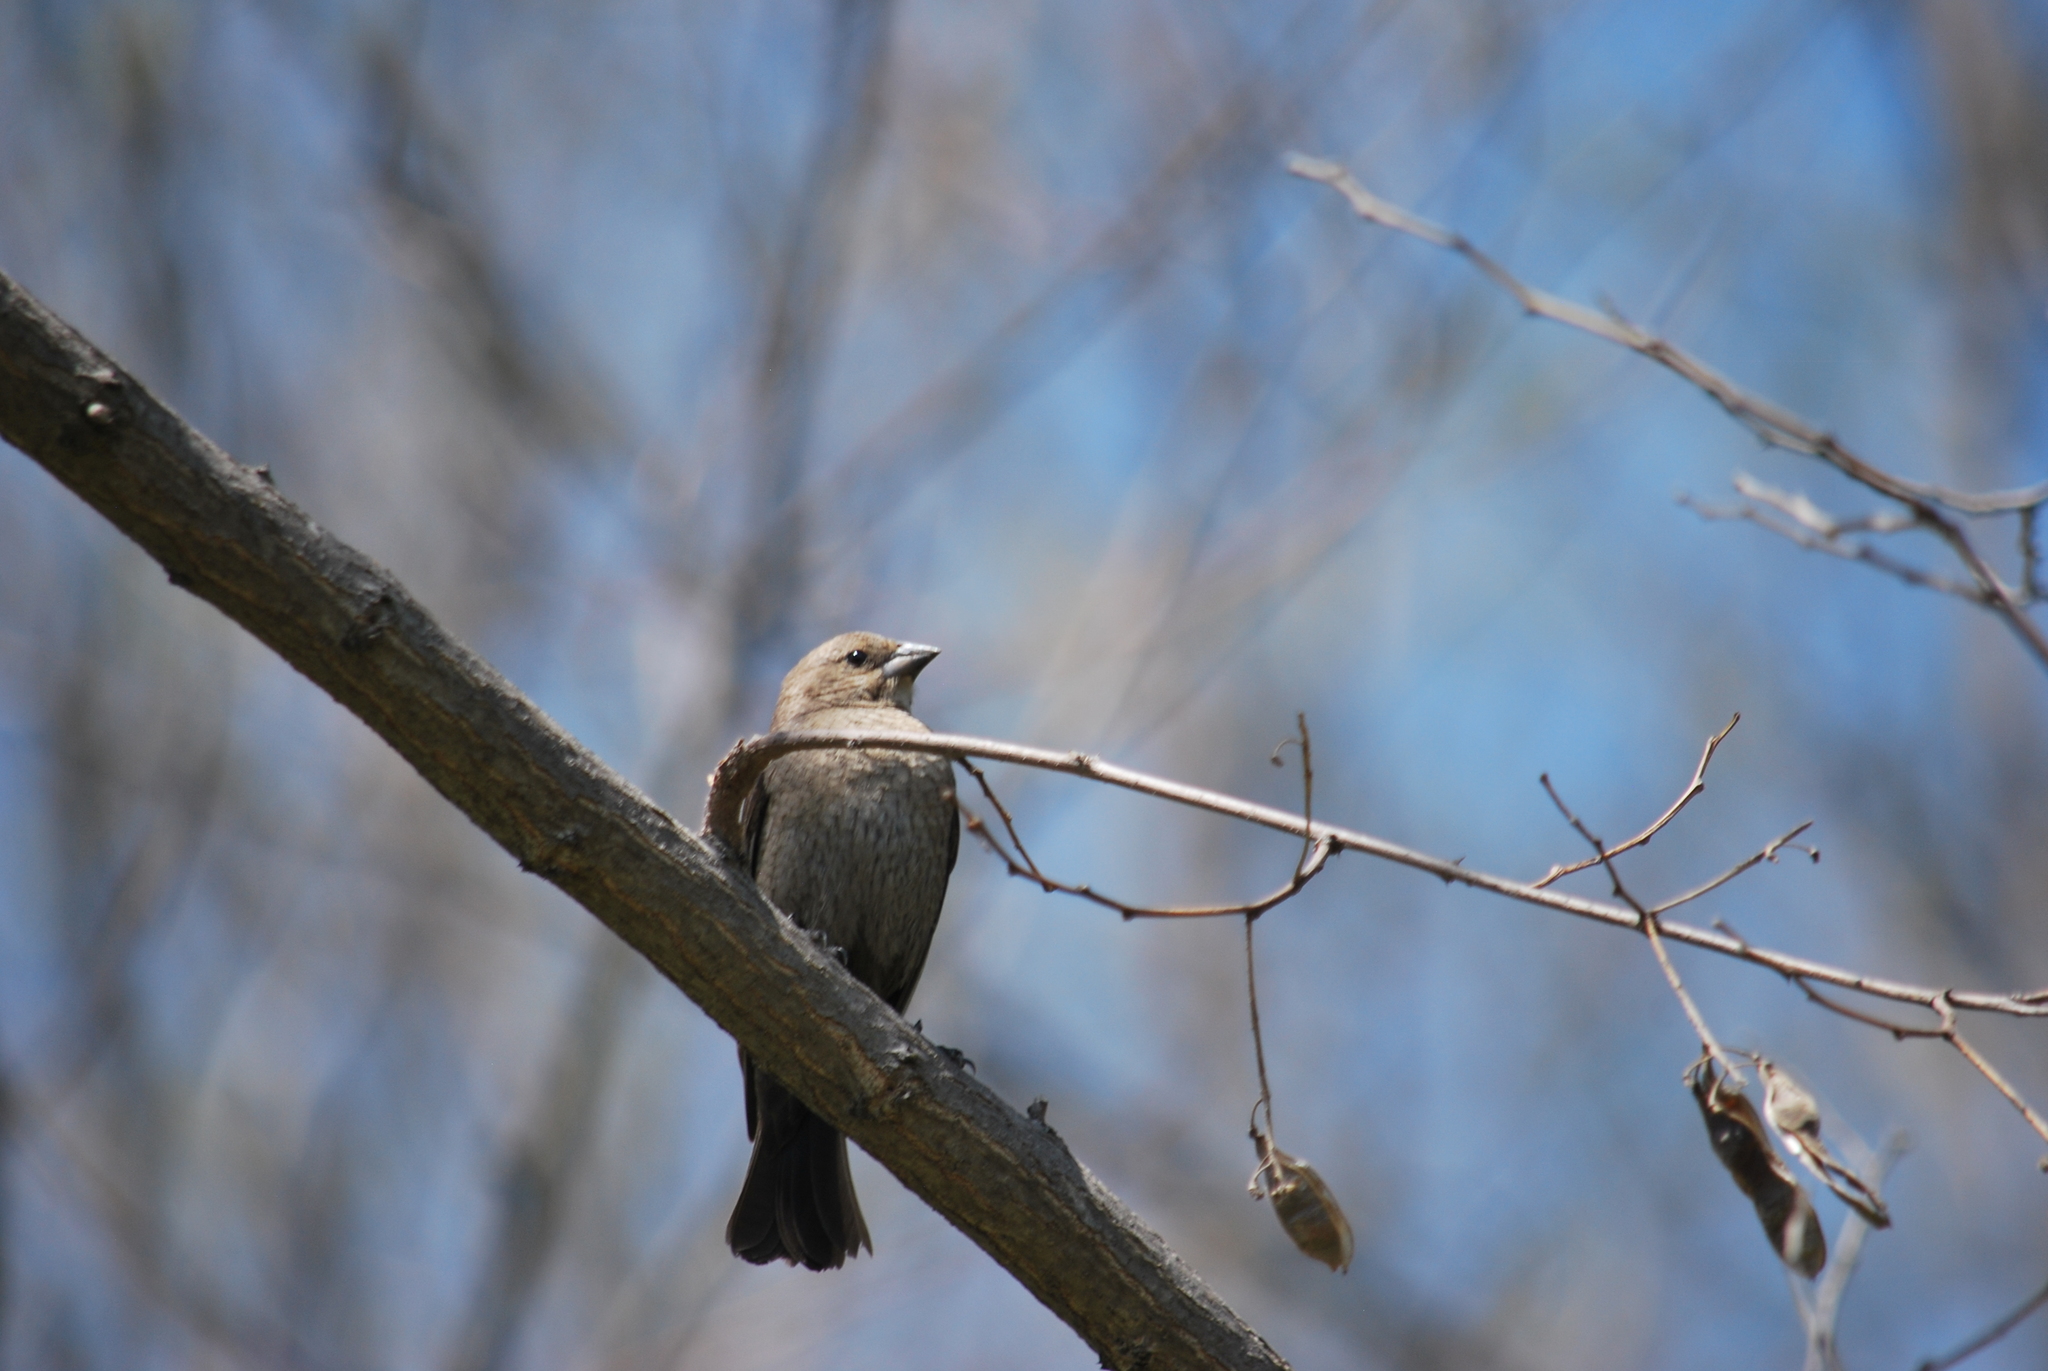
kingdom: Animalia
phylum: Chordata
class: Aves
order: Passeriformes
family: Icteridae
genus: Molothrus
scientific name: Molothrus ater
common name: Brown-headed cowbird
